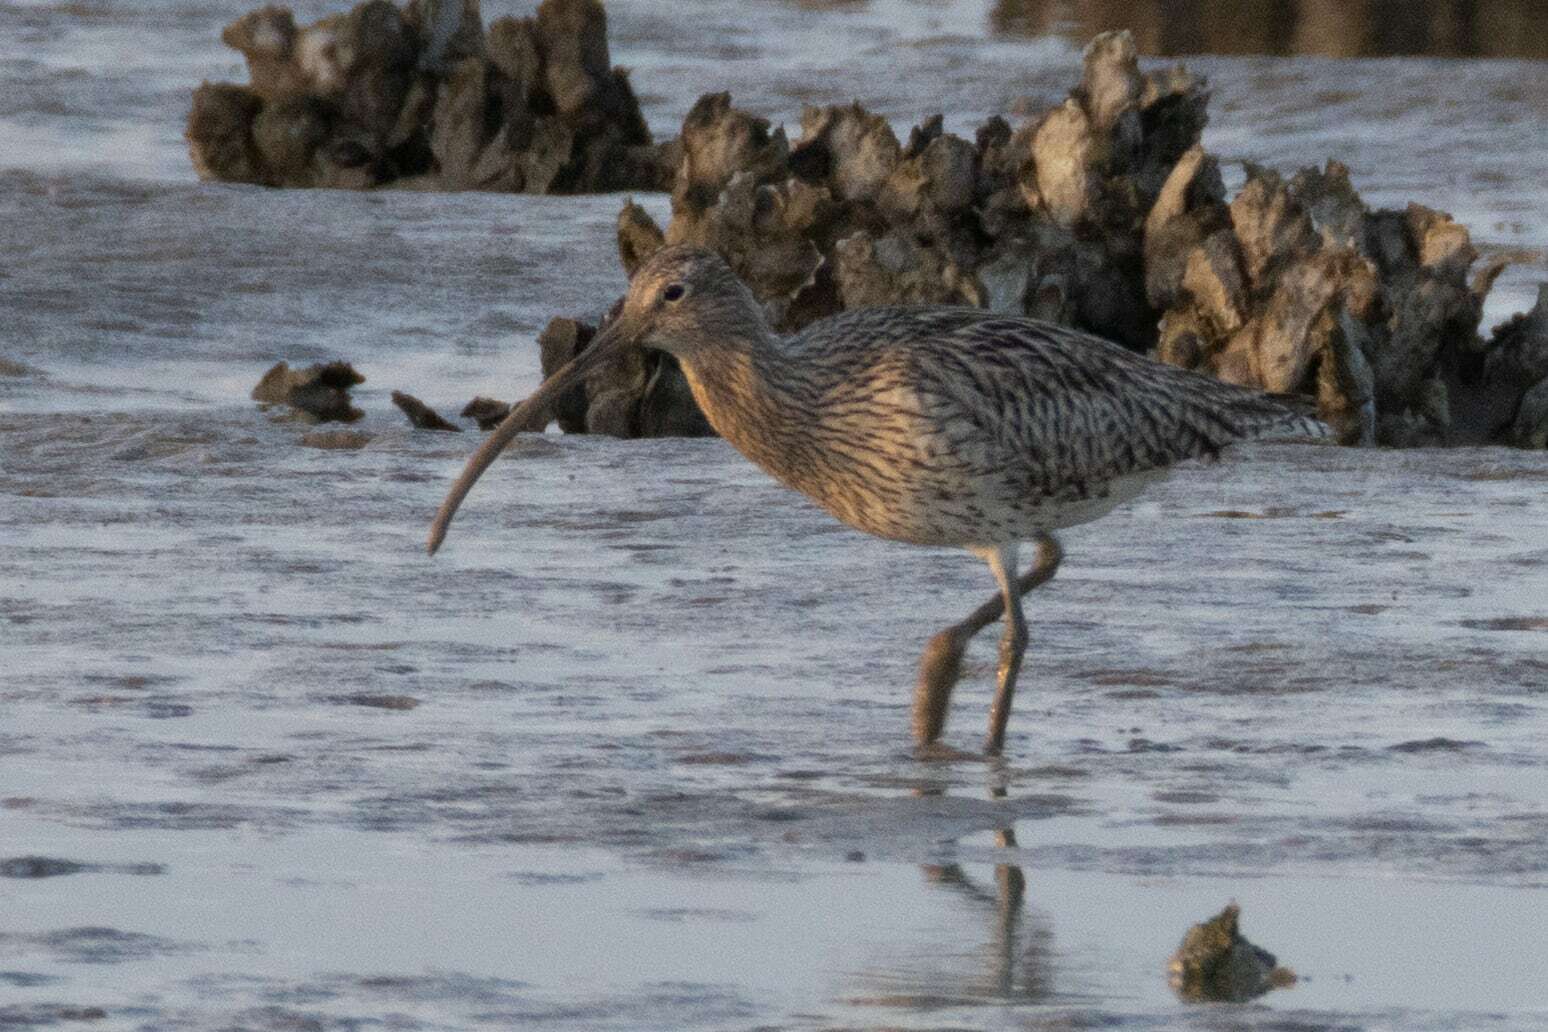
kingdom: Animalia
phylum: Chordata
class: Aves
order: Charadriiformes
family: Scolopacidae
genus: Numenius
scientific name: Numenius arquata
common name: Eurasian curlew
